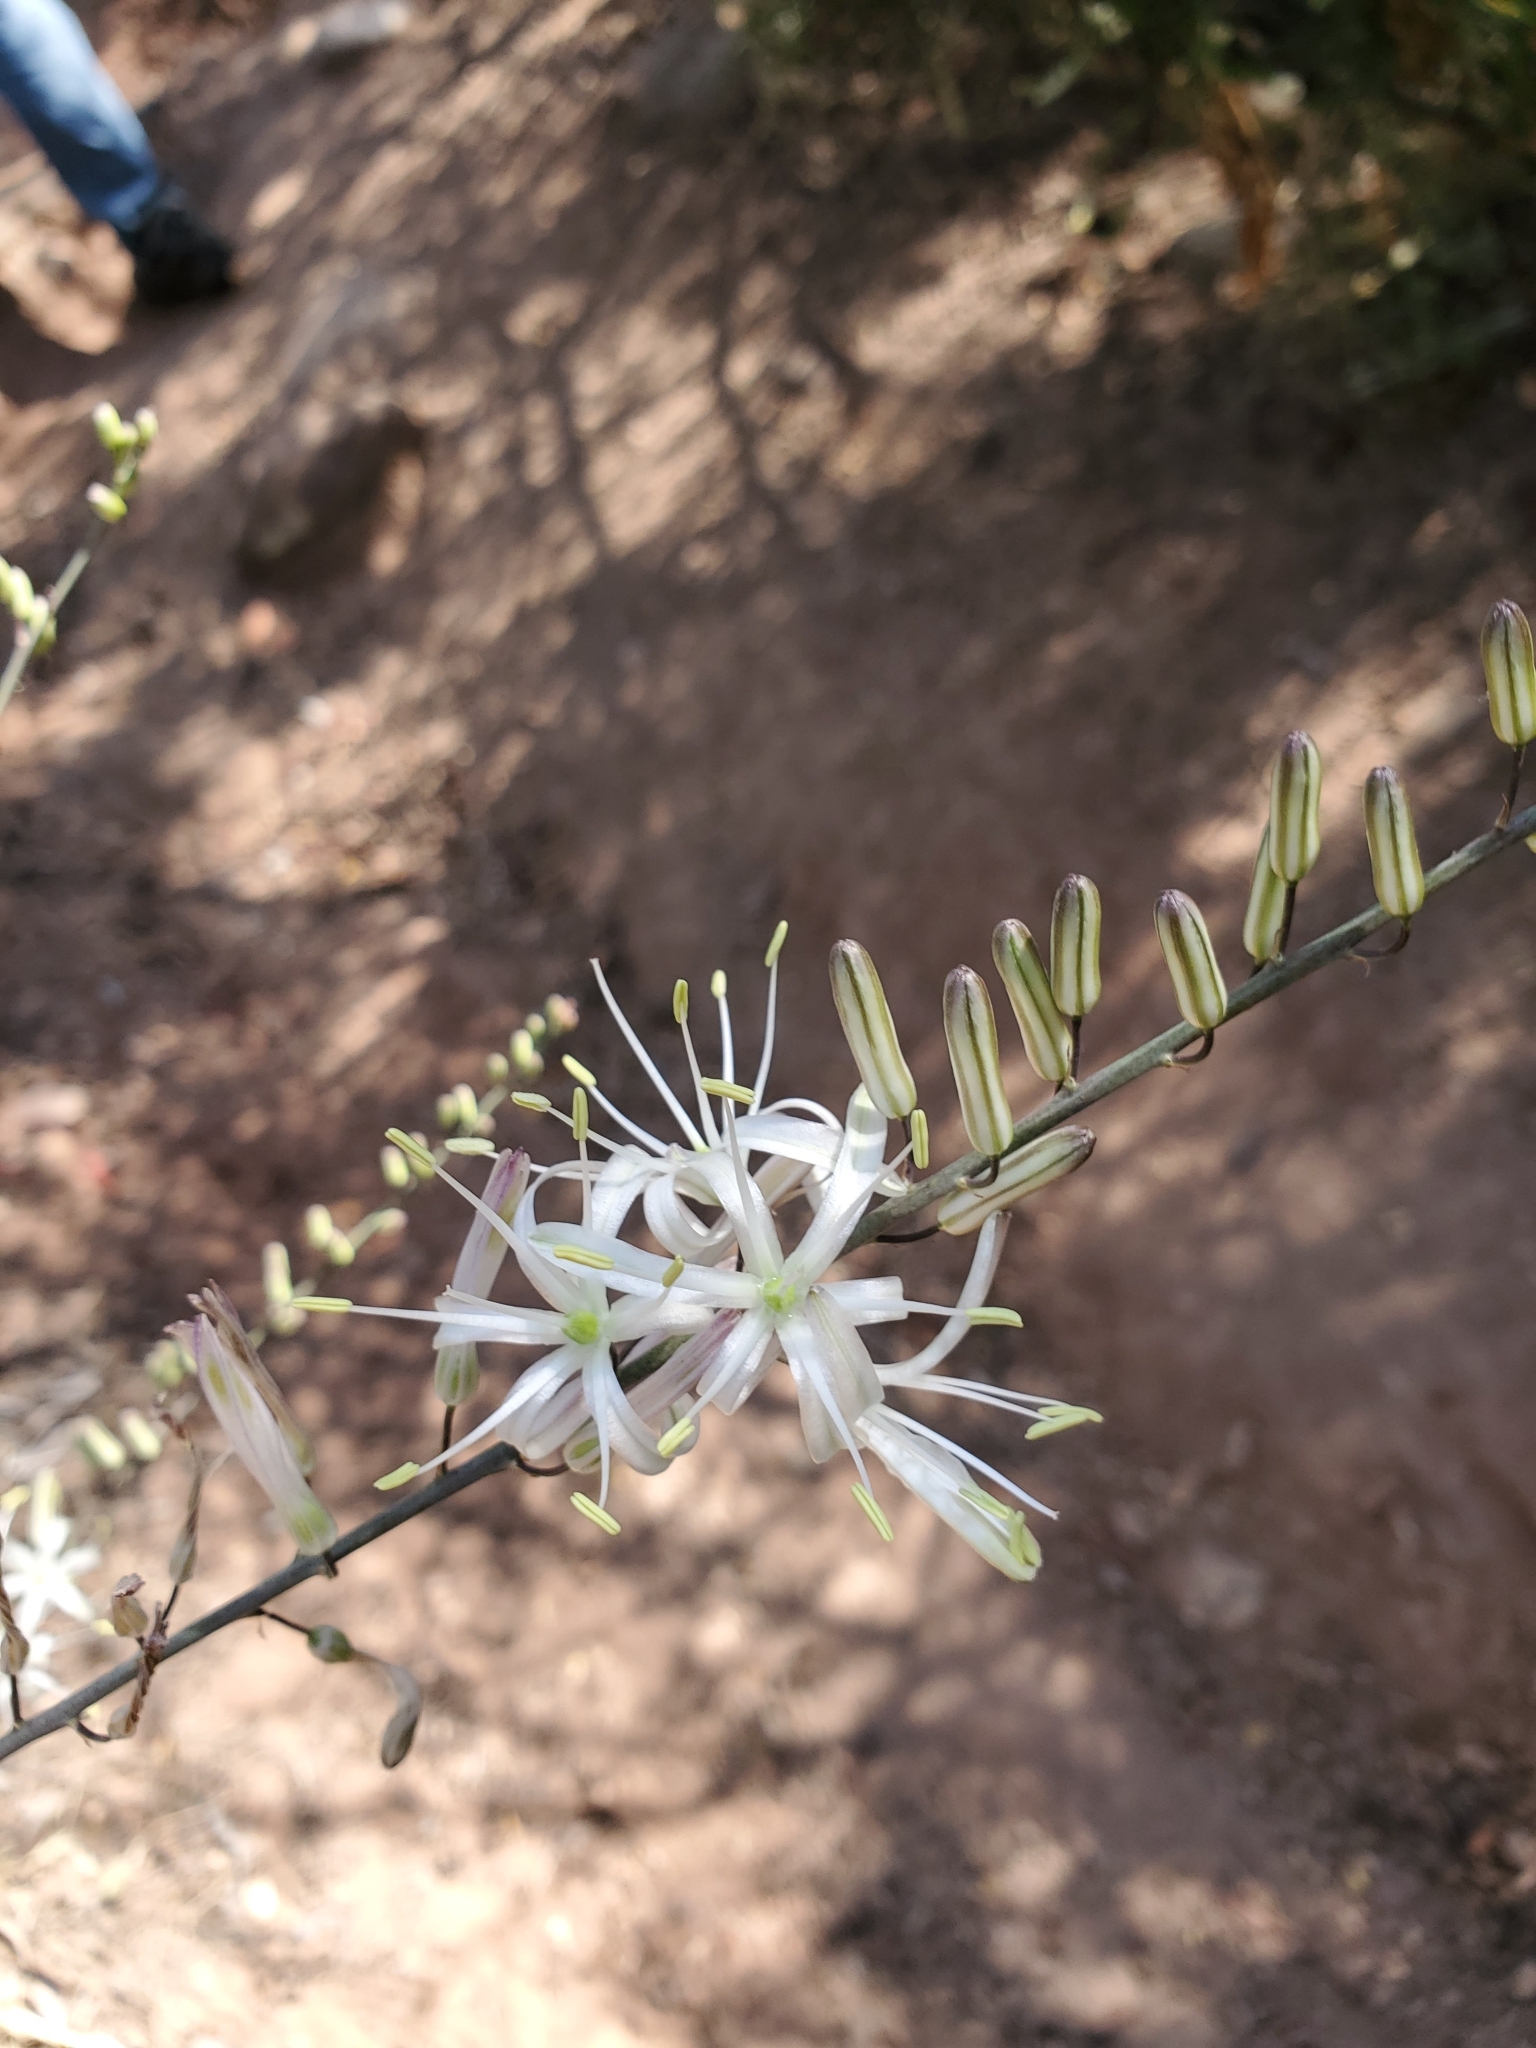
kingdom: Plantae
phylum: Tracheophyta
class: Liliopsida
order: Asparagales
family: Asparagaceae
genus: Chlorogalum
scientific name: Chlorogalum pomeridianum
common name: Amole
